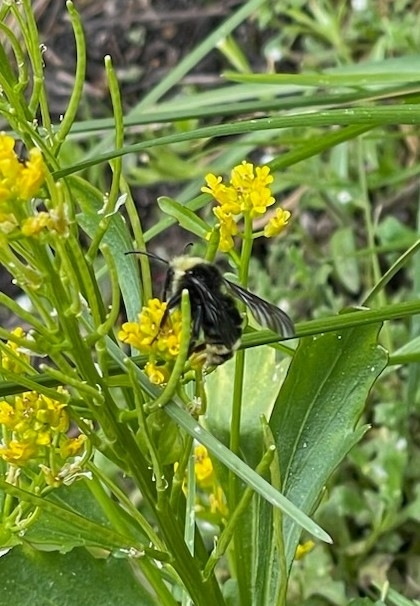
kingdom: Animalia
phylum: Arthropoda
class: Insecta
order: Hymenoptera
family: Apidae
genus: Bombus
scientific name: Bombus vosnesenskii
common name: Vosnesensky bumble bee
